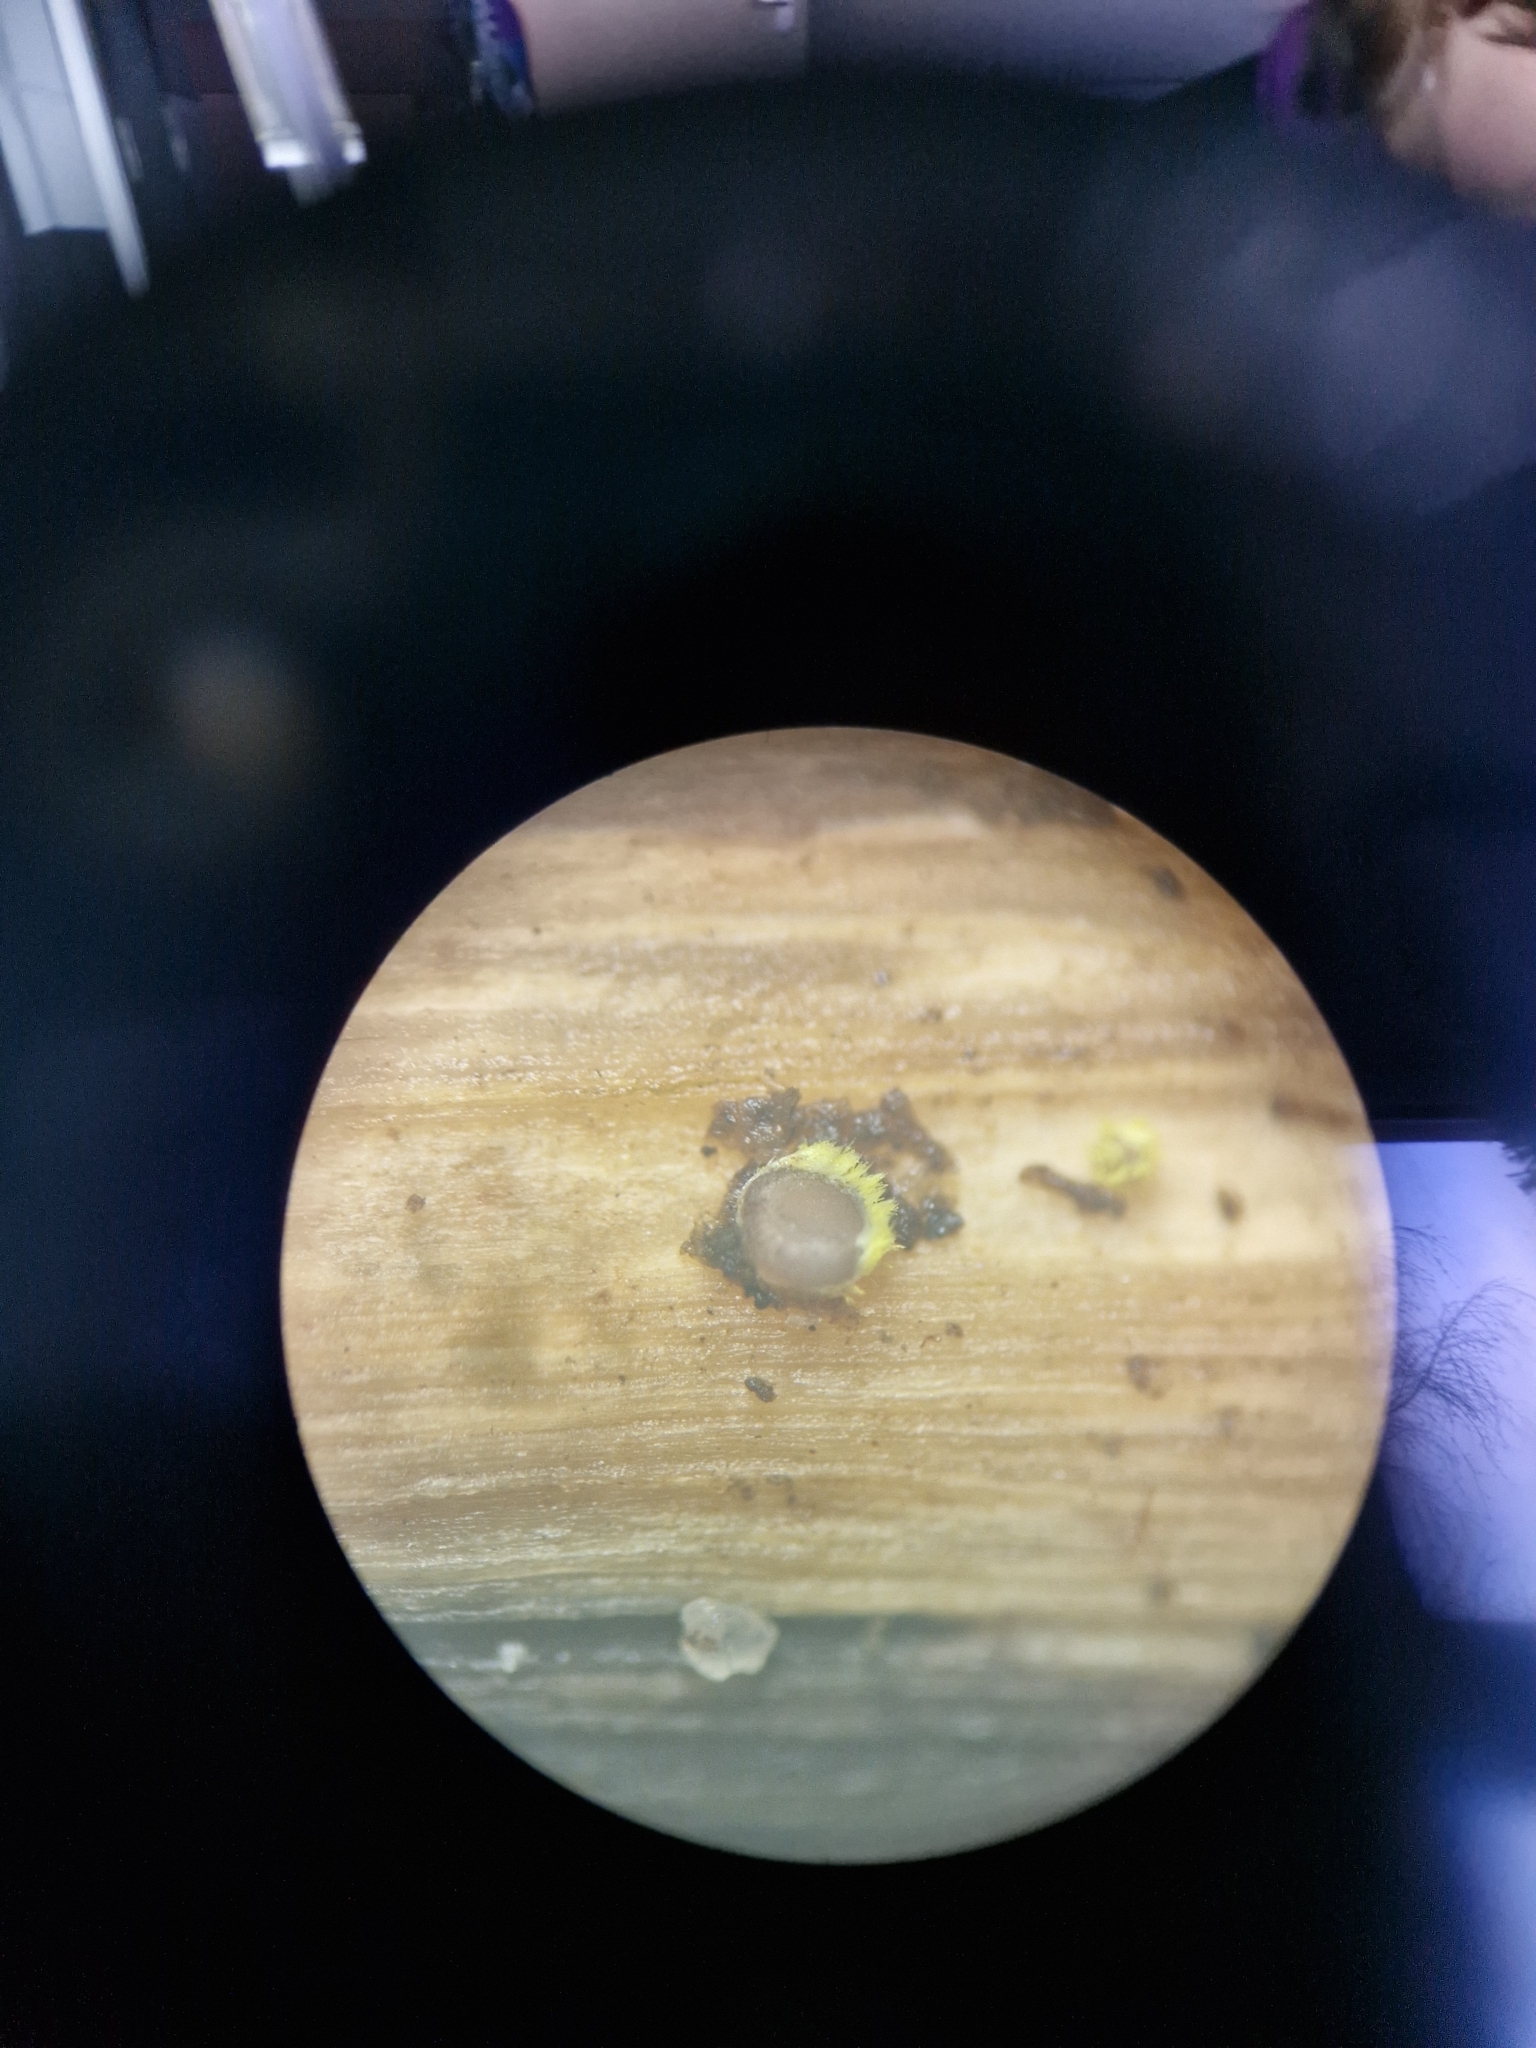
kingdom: Fungi
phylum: Ascomycota
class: Leotiomycetes
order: Helotiales
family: Lachnaceae
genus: Lachnum
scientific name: Lachnum sulphureum
